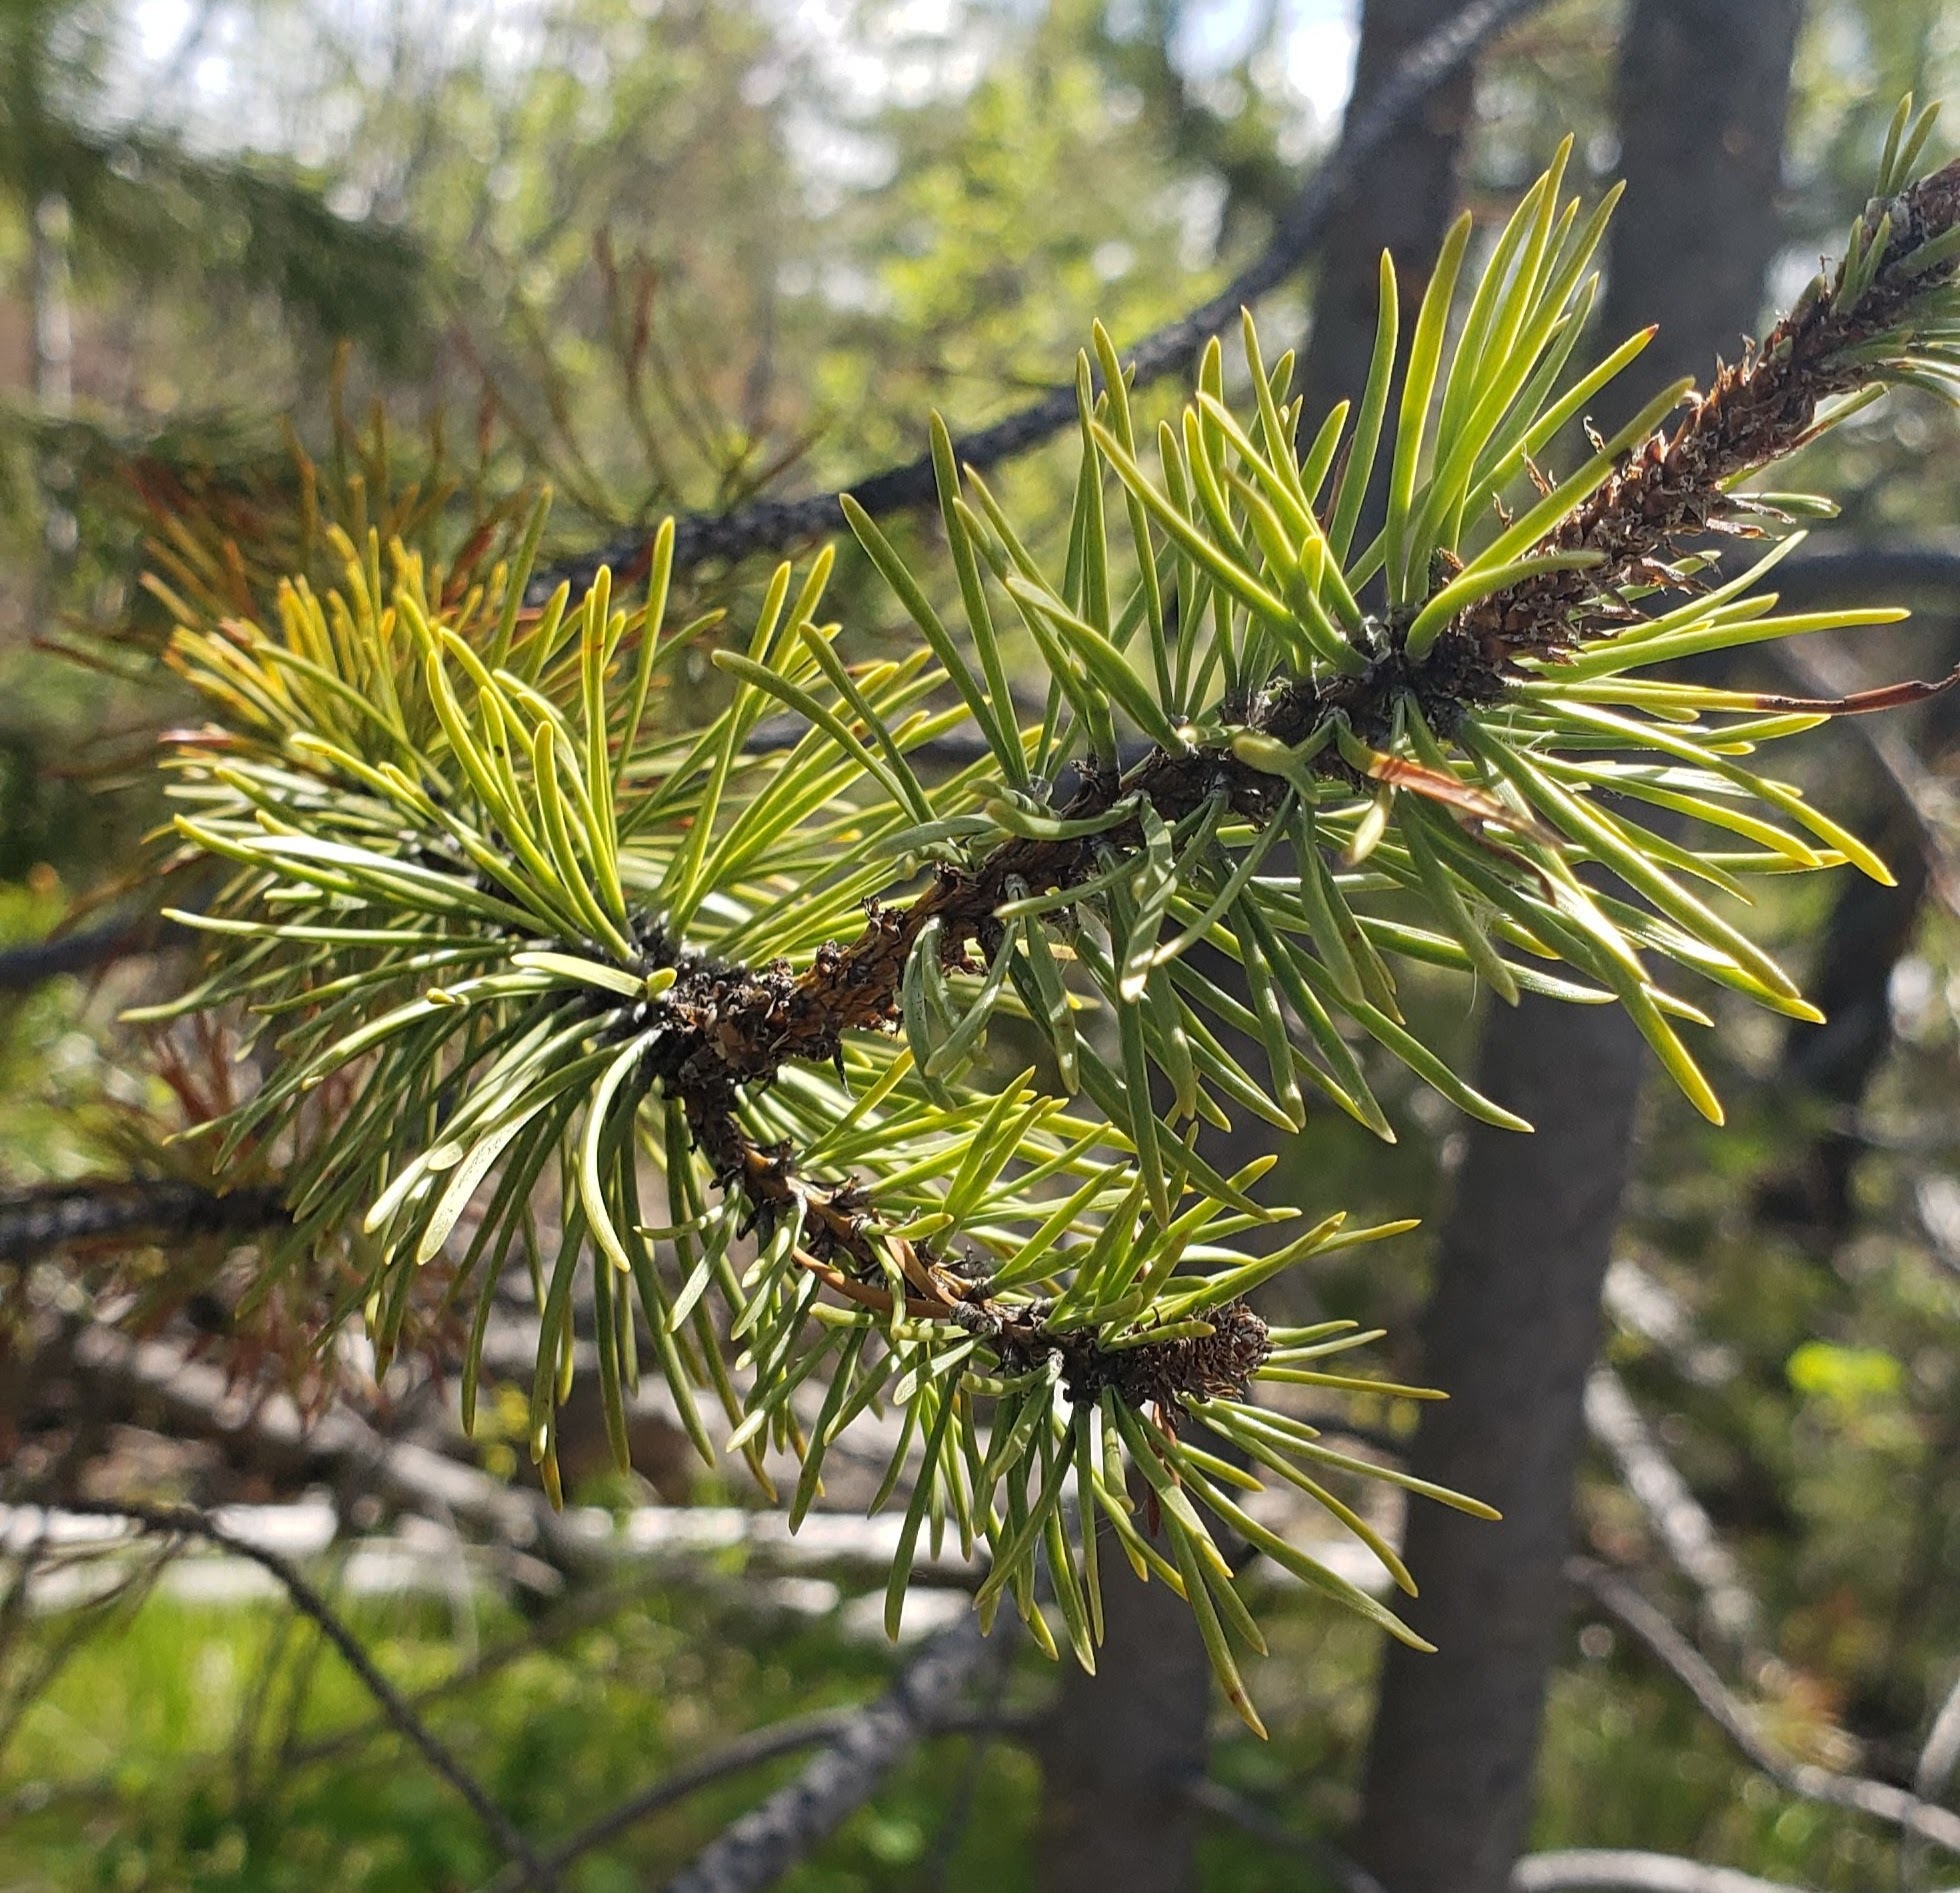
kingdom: Plantae
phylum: Tracheophyta
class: Pinopsida
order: Pinales
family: Pinaceae
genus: Pinus
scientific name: Pinus contorta
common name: Lodgepole pine
